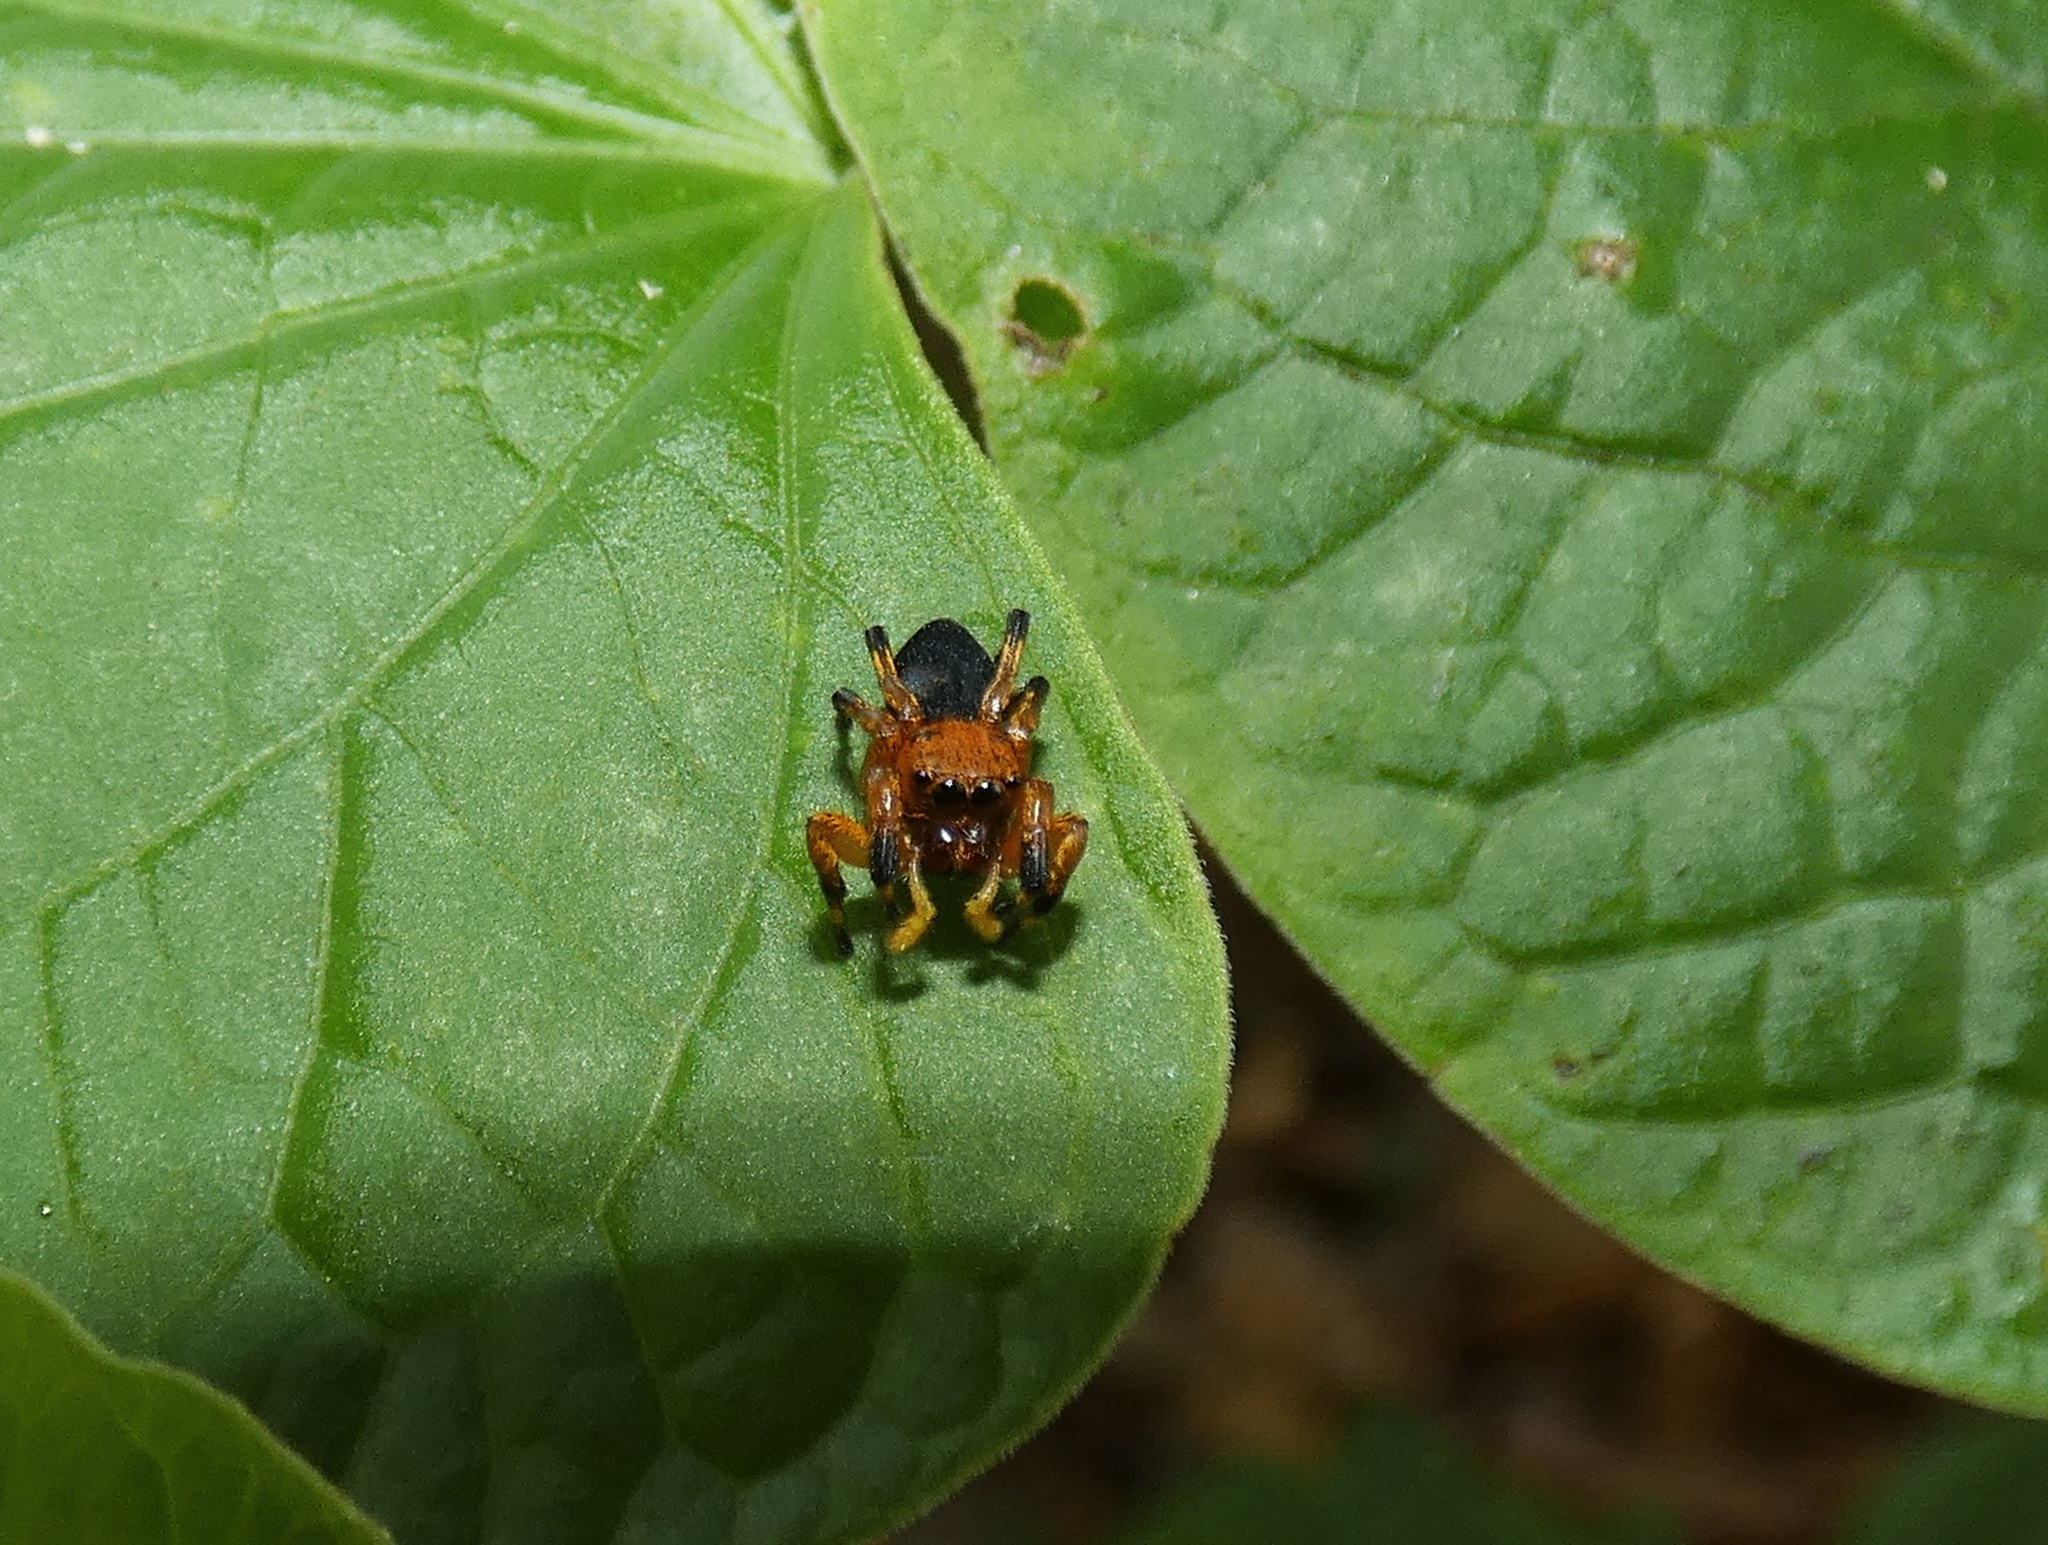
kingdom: Animalia
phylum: Arthropoda
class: Arachnida
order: Araneae
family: Salticidae
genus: Phiale
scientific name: Phiale crocea
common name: Jumping spiders
